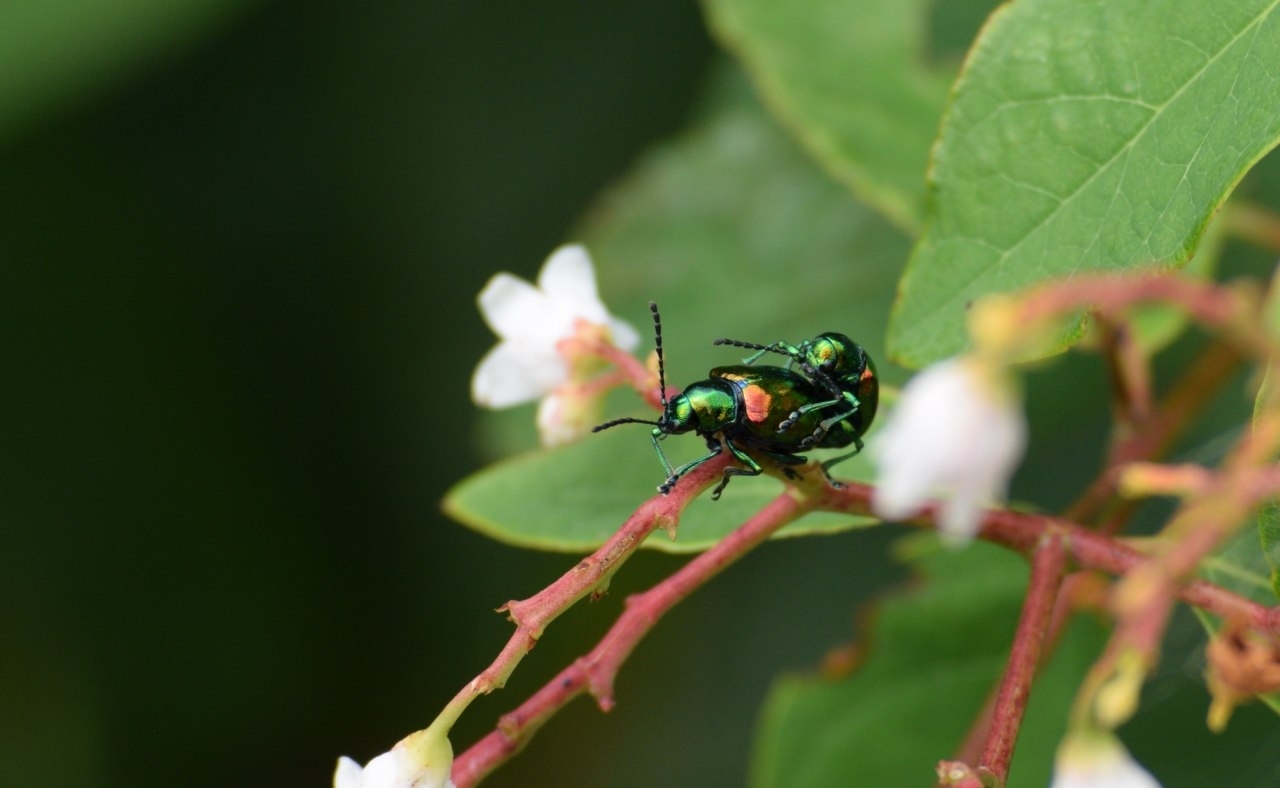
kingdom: Animalia
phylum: Arthropoda
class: Insecta
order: Coleoptera
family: Chrysomelidae
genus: Chrysochus
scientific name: Chrysochus auratus
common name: Dogbane leaf beetle
